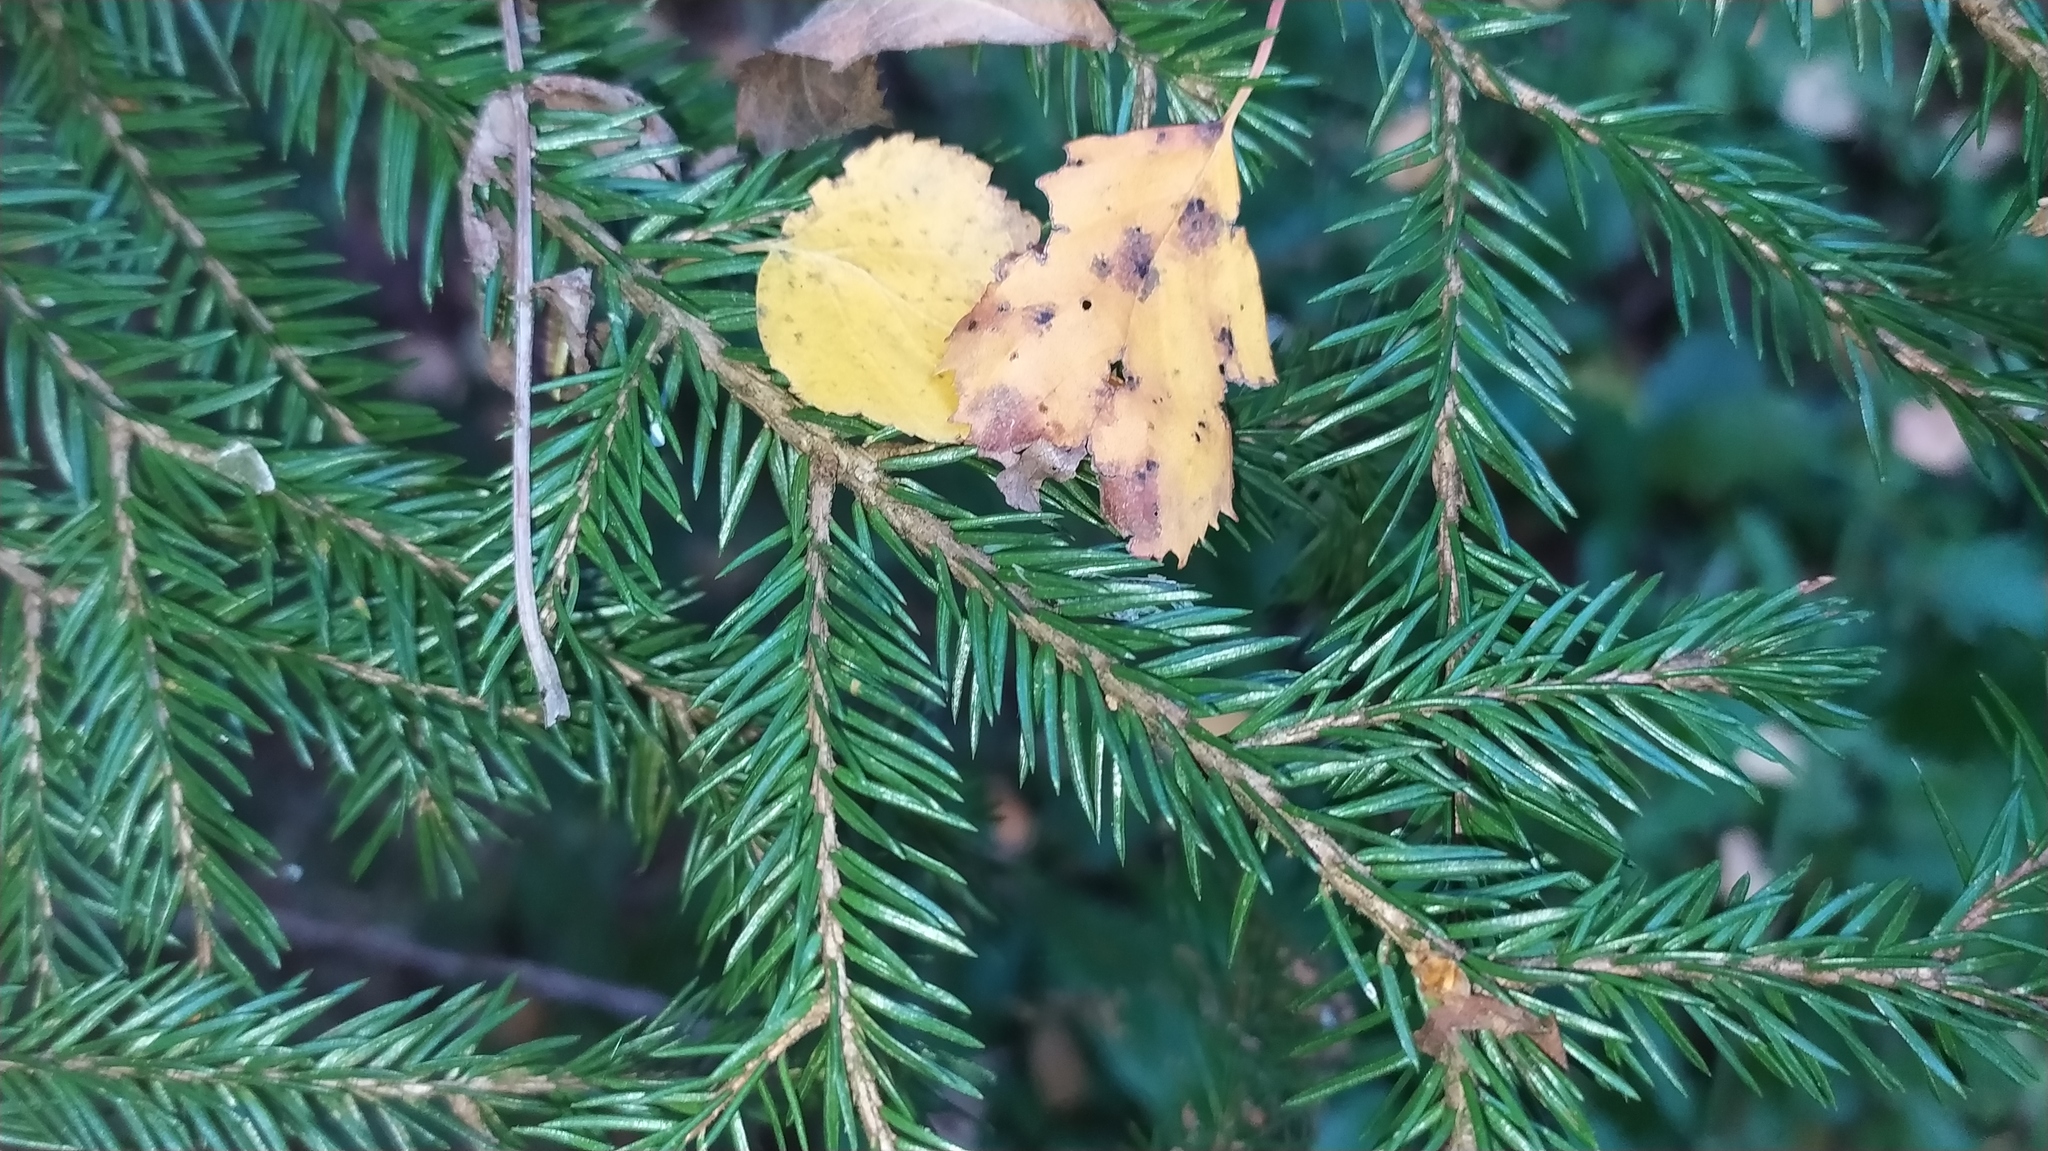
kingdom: Plantae
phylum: Tracheophyta
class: Pinopsida
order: Pinales
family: Pinaceae
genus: Picea
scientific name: Picea abies
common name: Norway spruce
